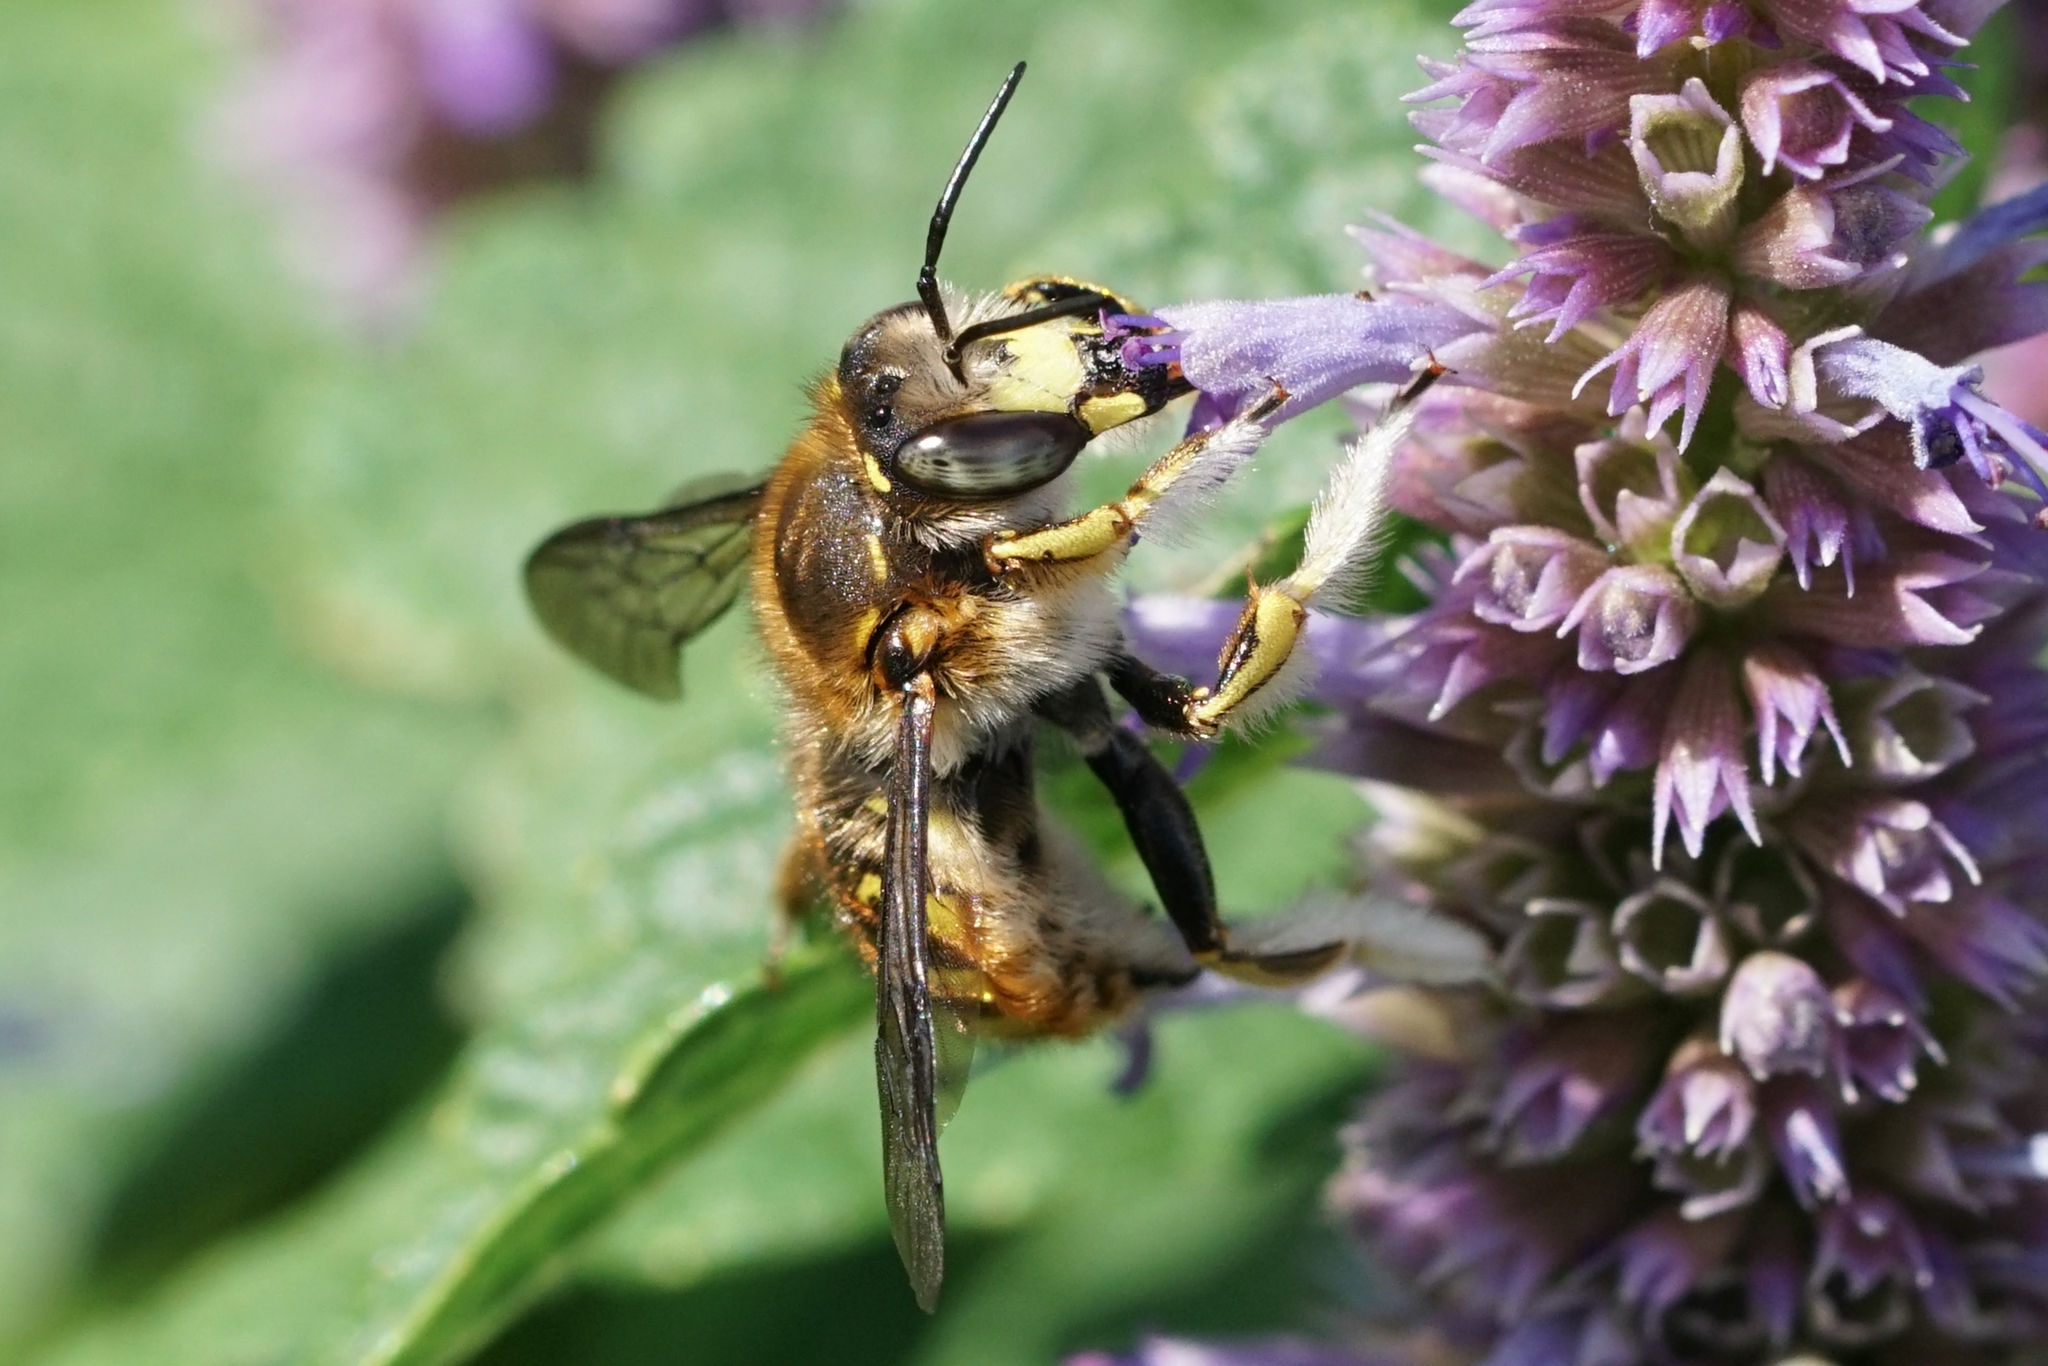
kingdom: Animalia
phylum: Arthropoda
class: Insecta
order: Hymenoptera
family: Megachilidae
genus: Anthidium
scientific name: Anthidium manicatum
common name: Wool carder bee
